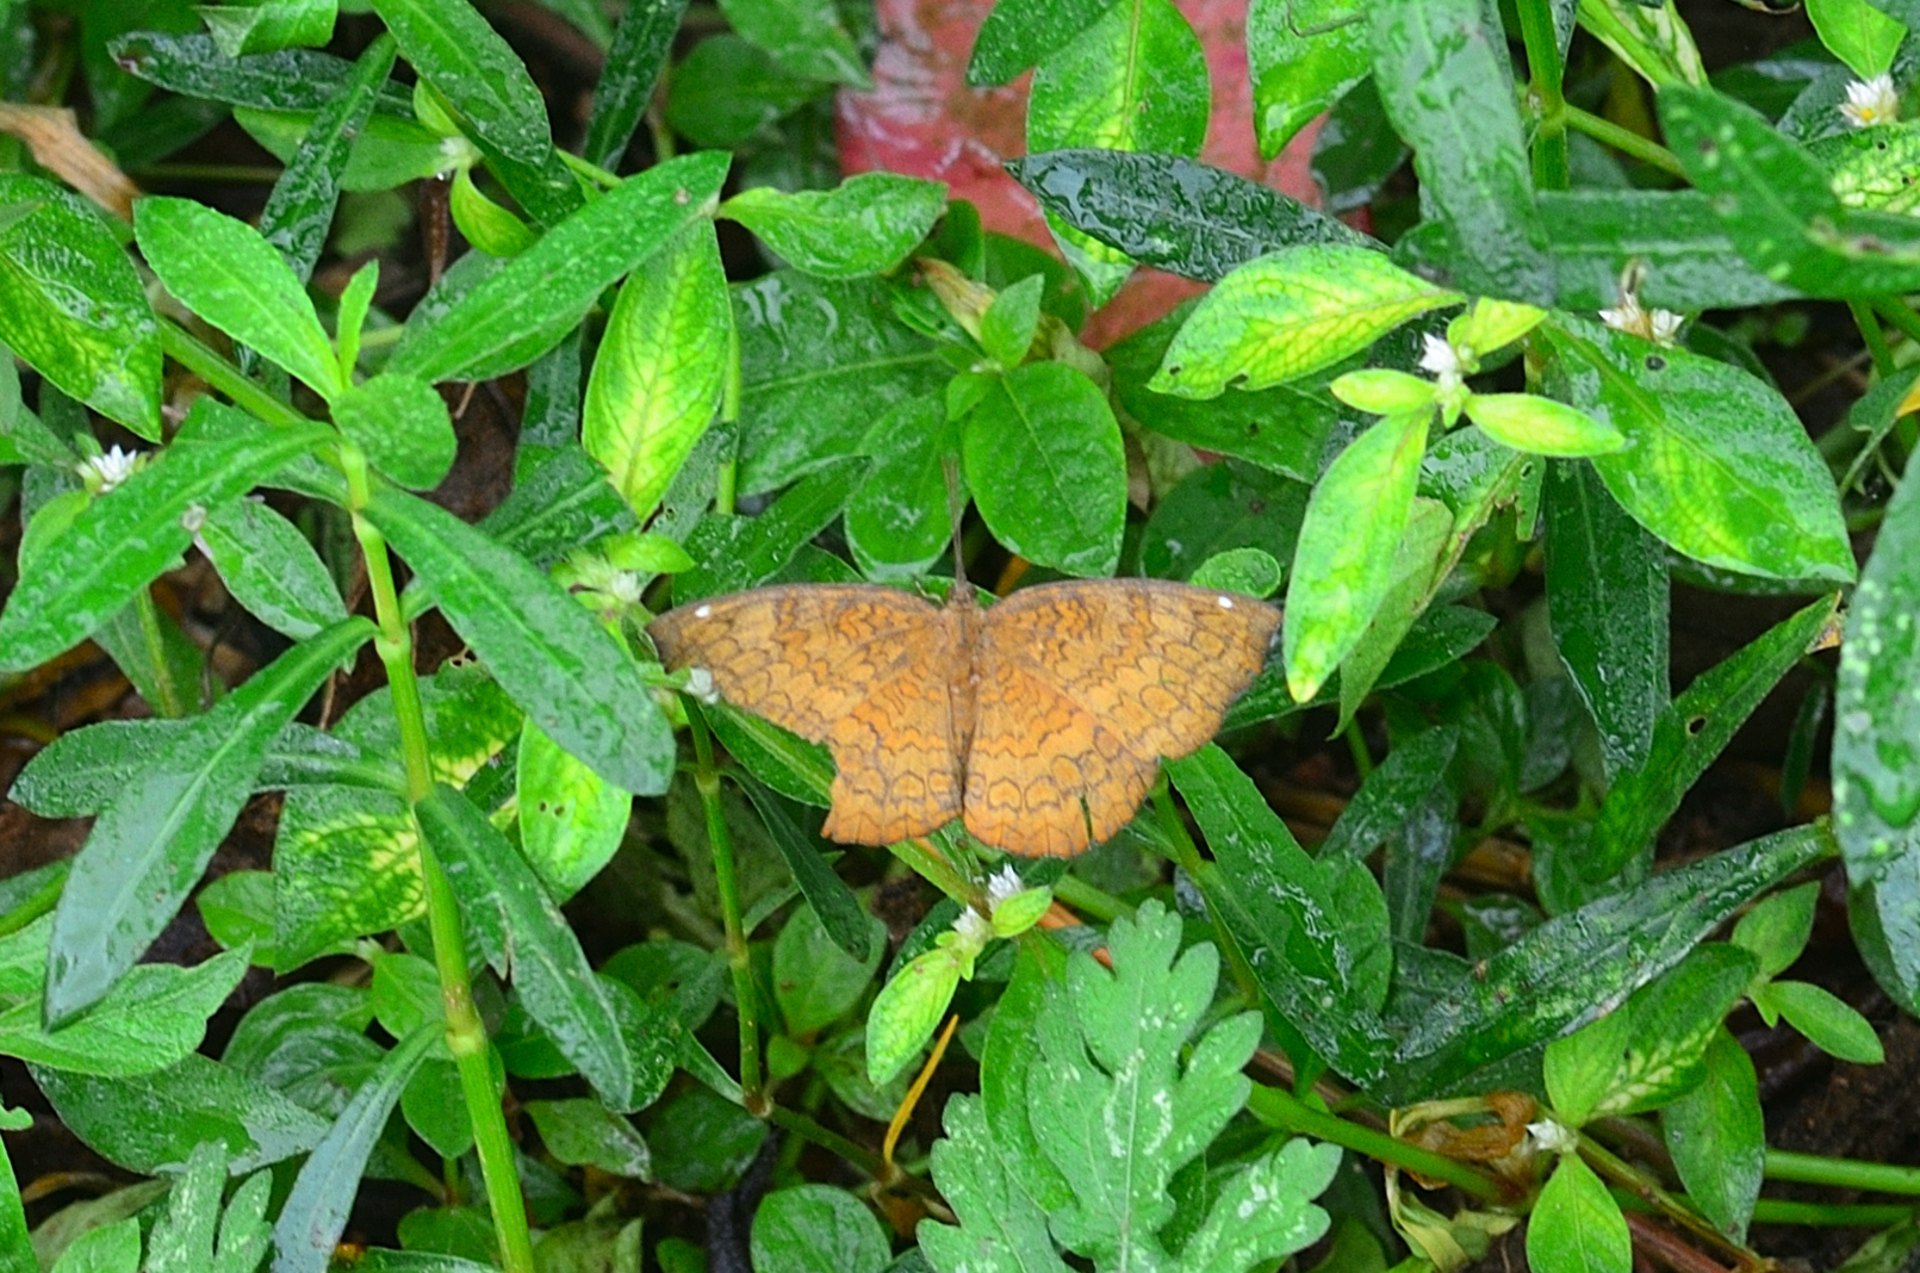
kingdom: Animalia
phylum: Arthropoda
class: Insecta
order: Lepidoptera
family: Nymphalidae
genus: Ariadne
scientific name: Ariadne merione
